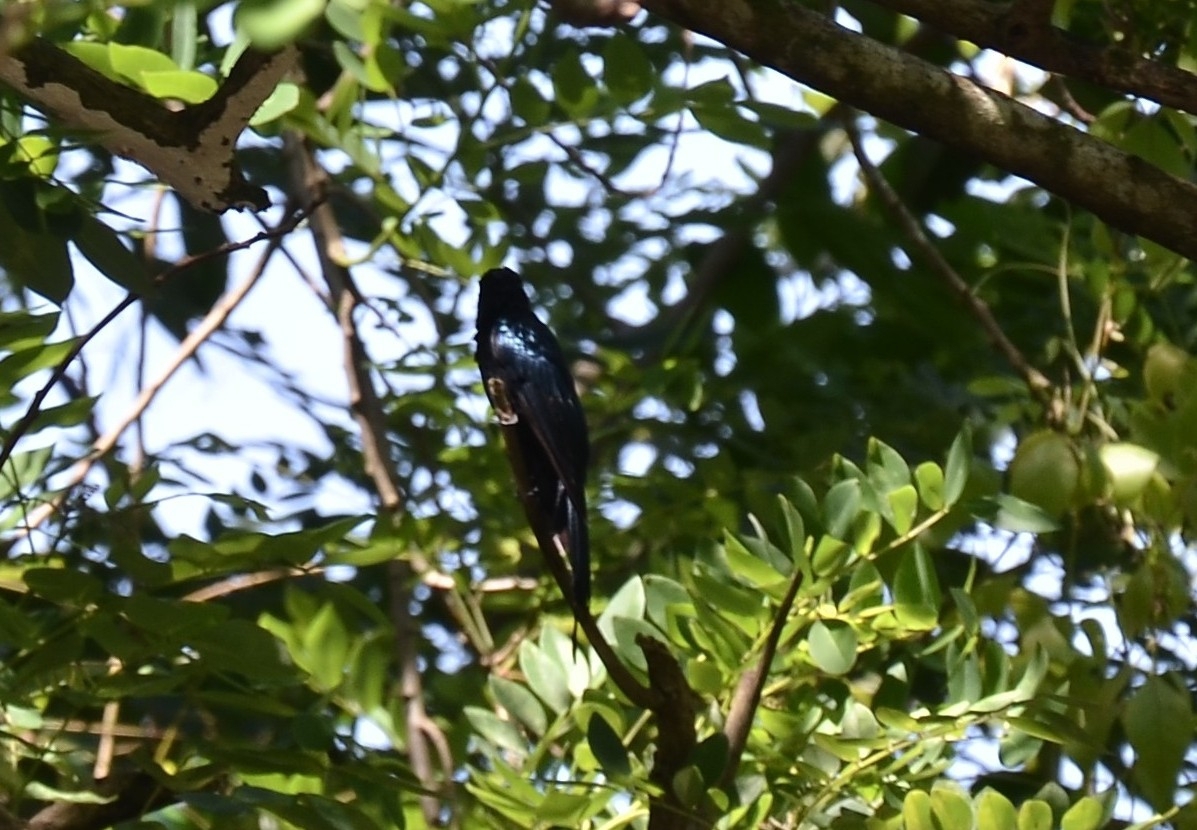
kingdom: Animalia
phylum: Chordata
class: Aves
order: Passeriformes
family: Dicruridae
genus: Dicrurus
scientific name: Dicrurus aeneus
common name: Bronzed drongo
